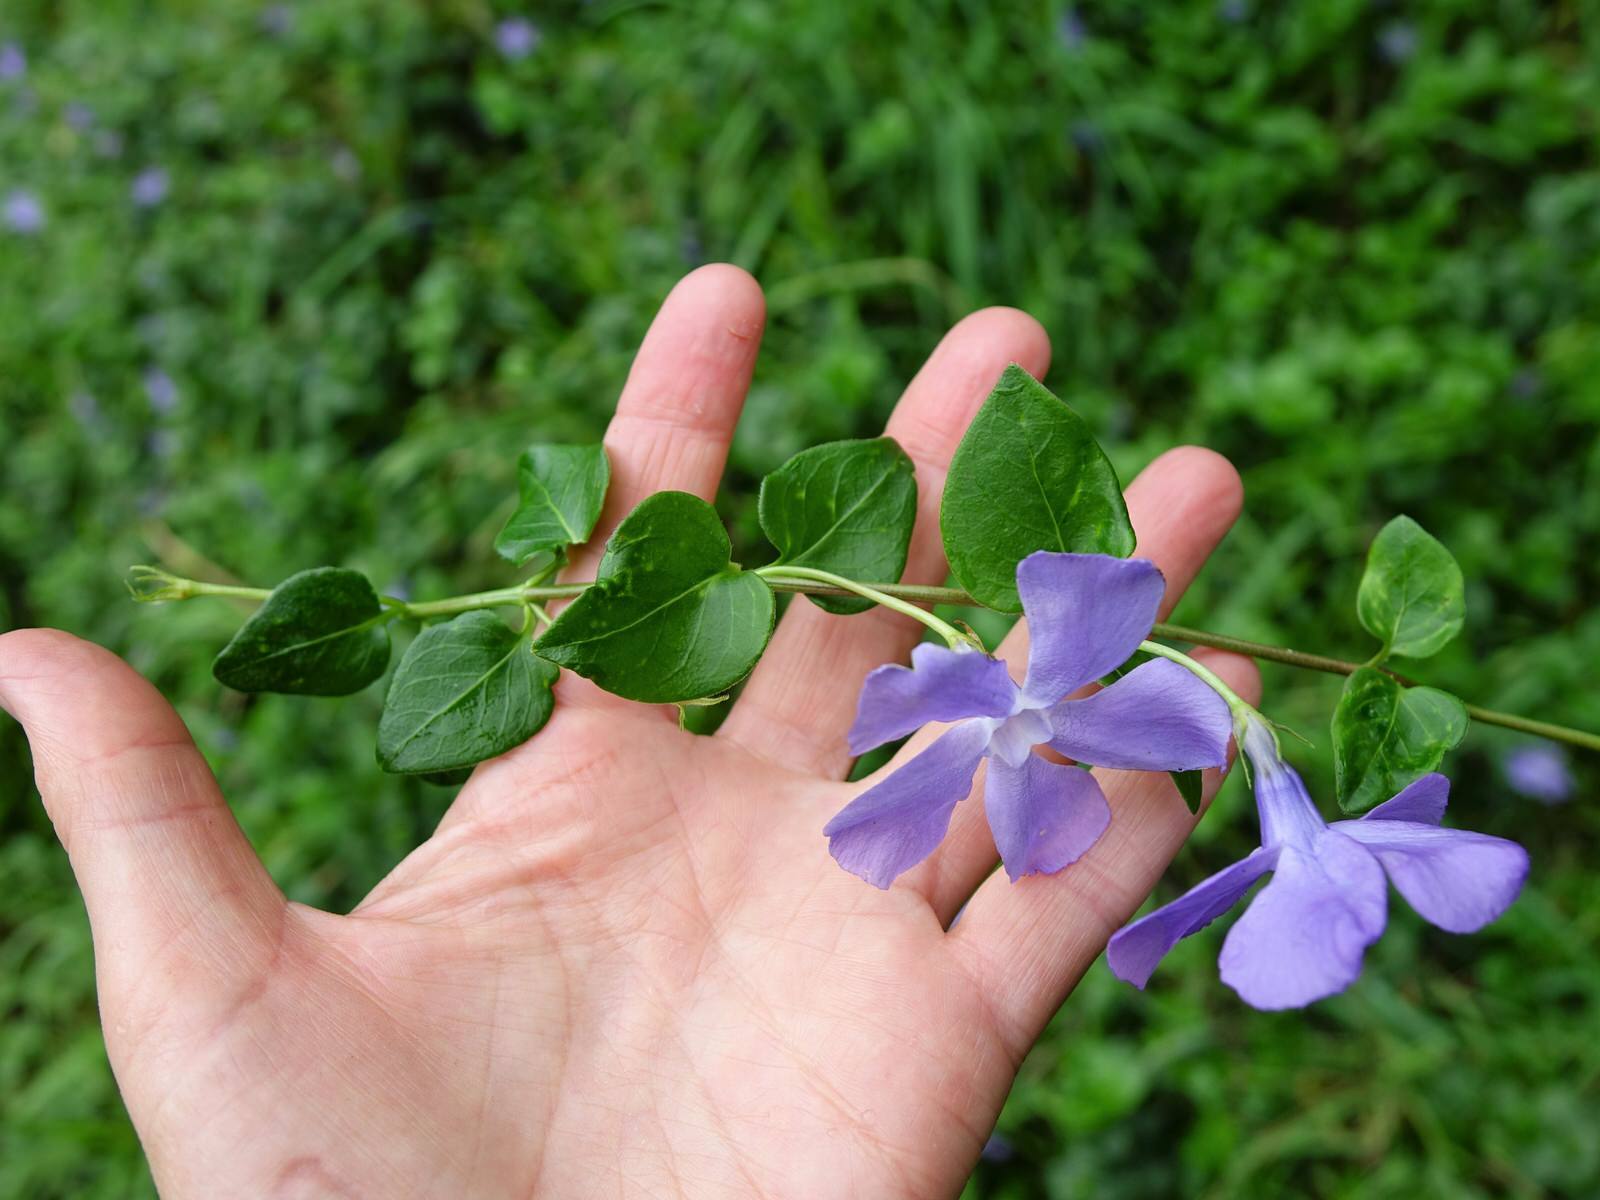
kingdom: Plantae
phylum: Tracheophyta
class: Magnoliopsida
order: Gentianales
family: Apocynaceae
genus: Vinca
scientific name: Vinca major
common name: Greater periwinkle
